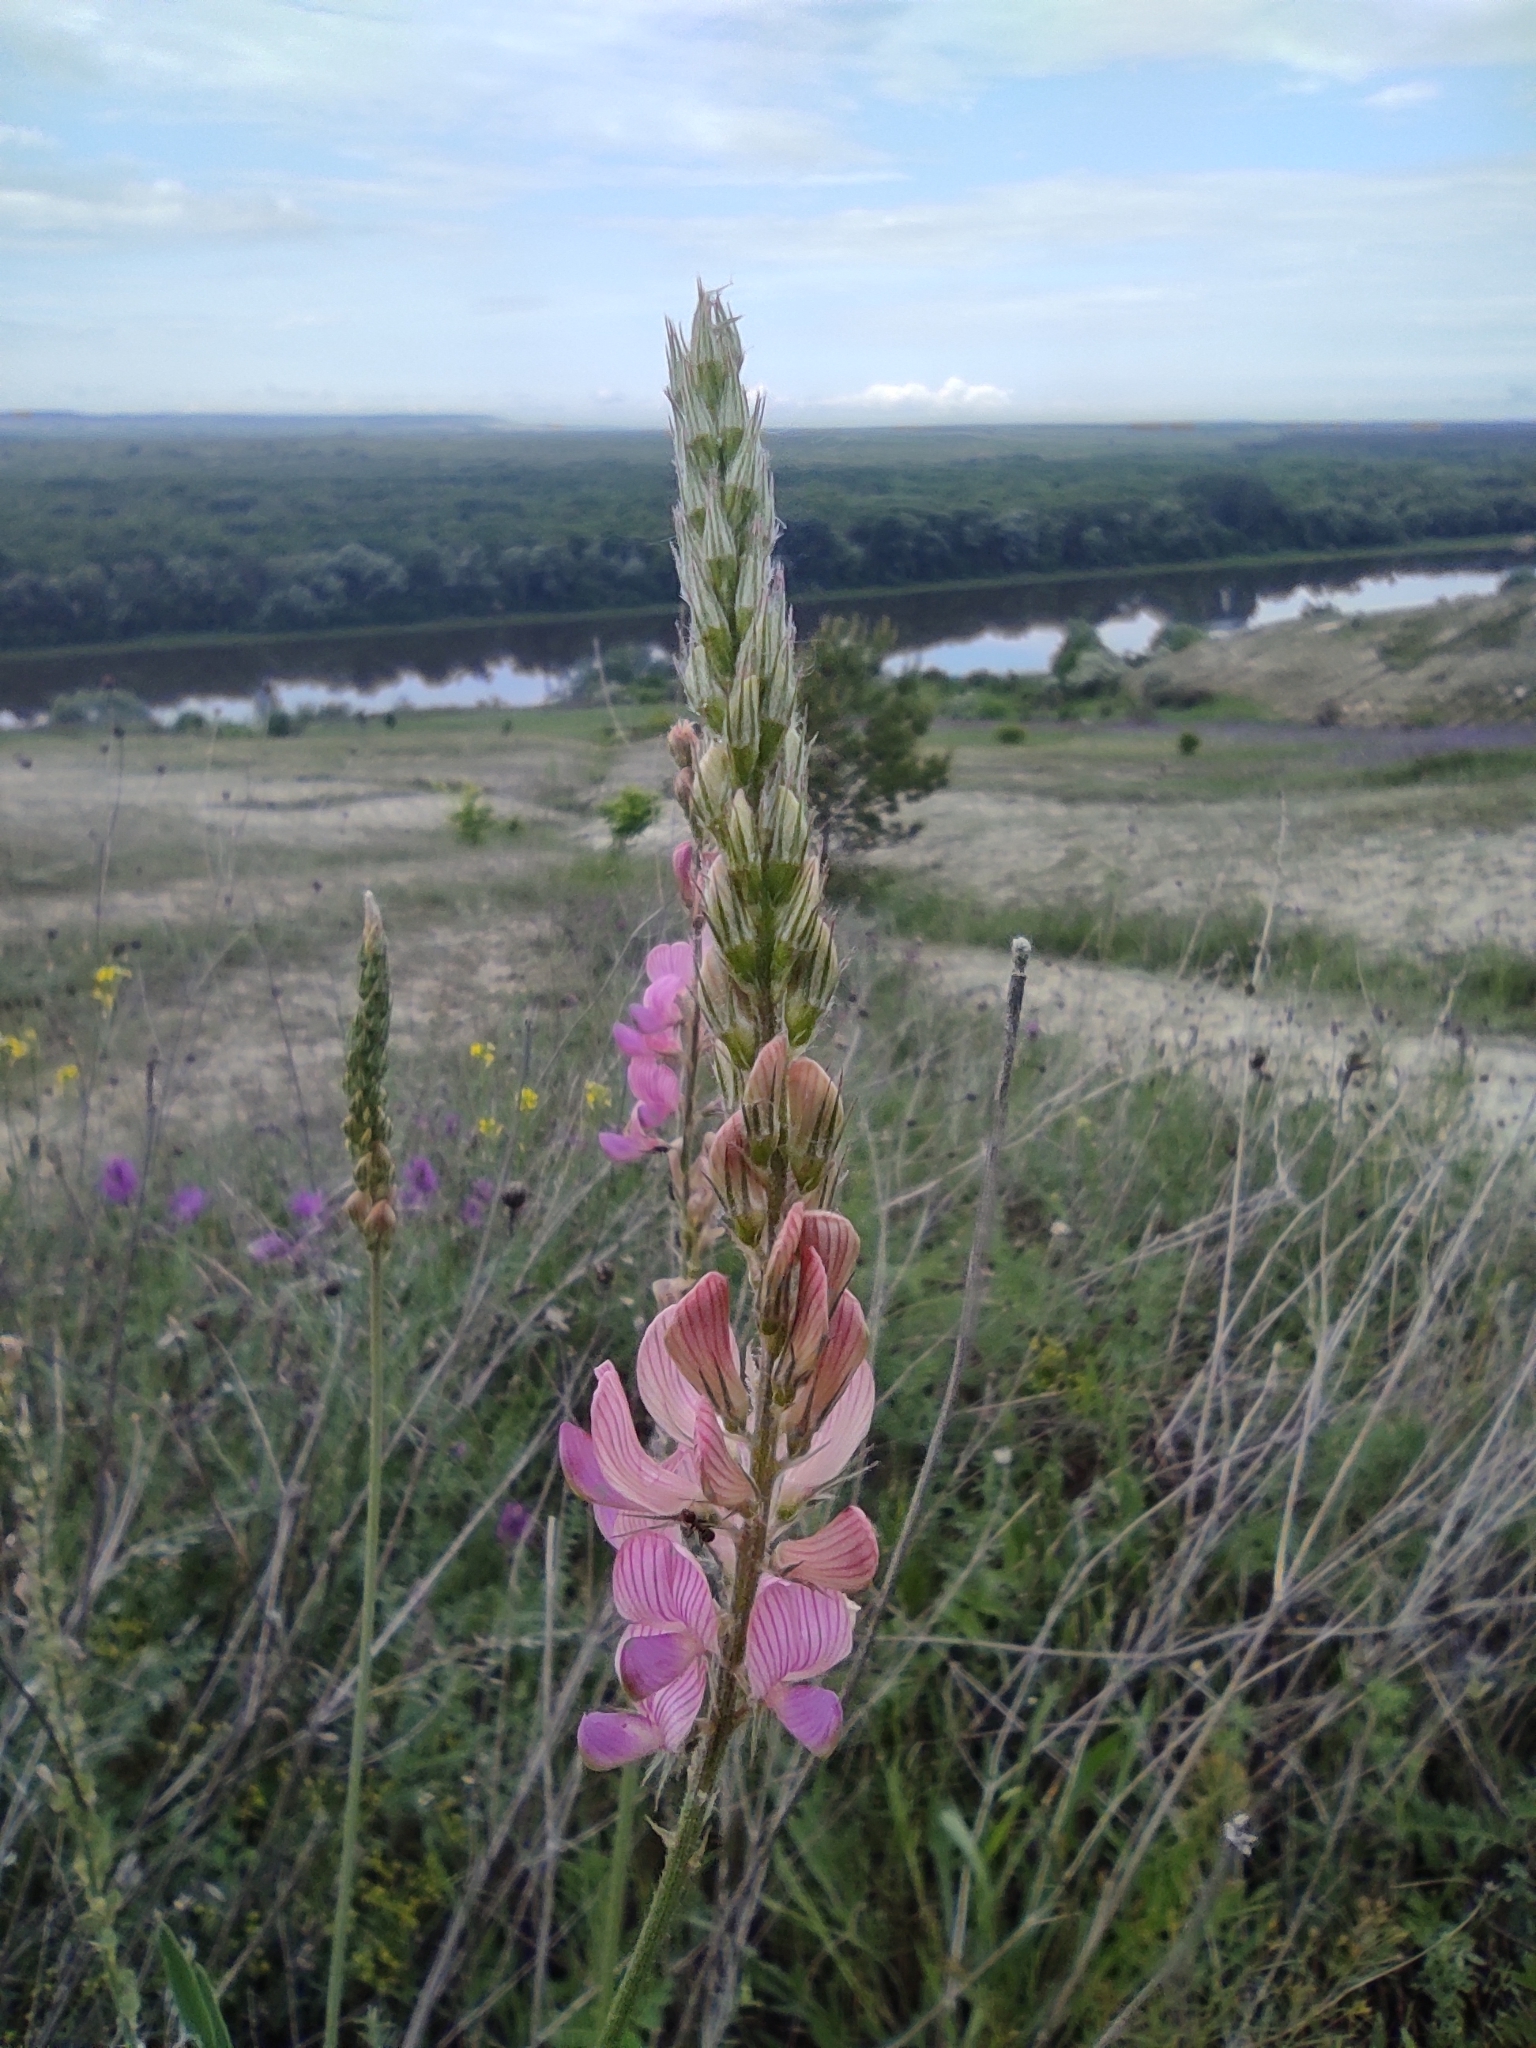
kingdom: Plantae
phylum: Tracheophyta
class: Magnoliopsida
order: Fabales
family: Fabaceae
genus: Onobrychis
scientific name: Onobrychis viciifolia
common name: Sainfoin
